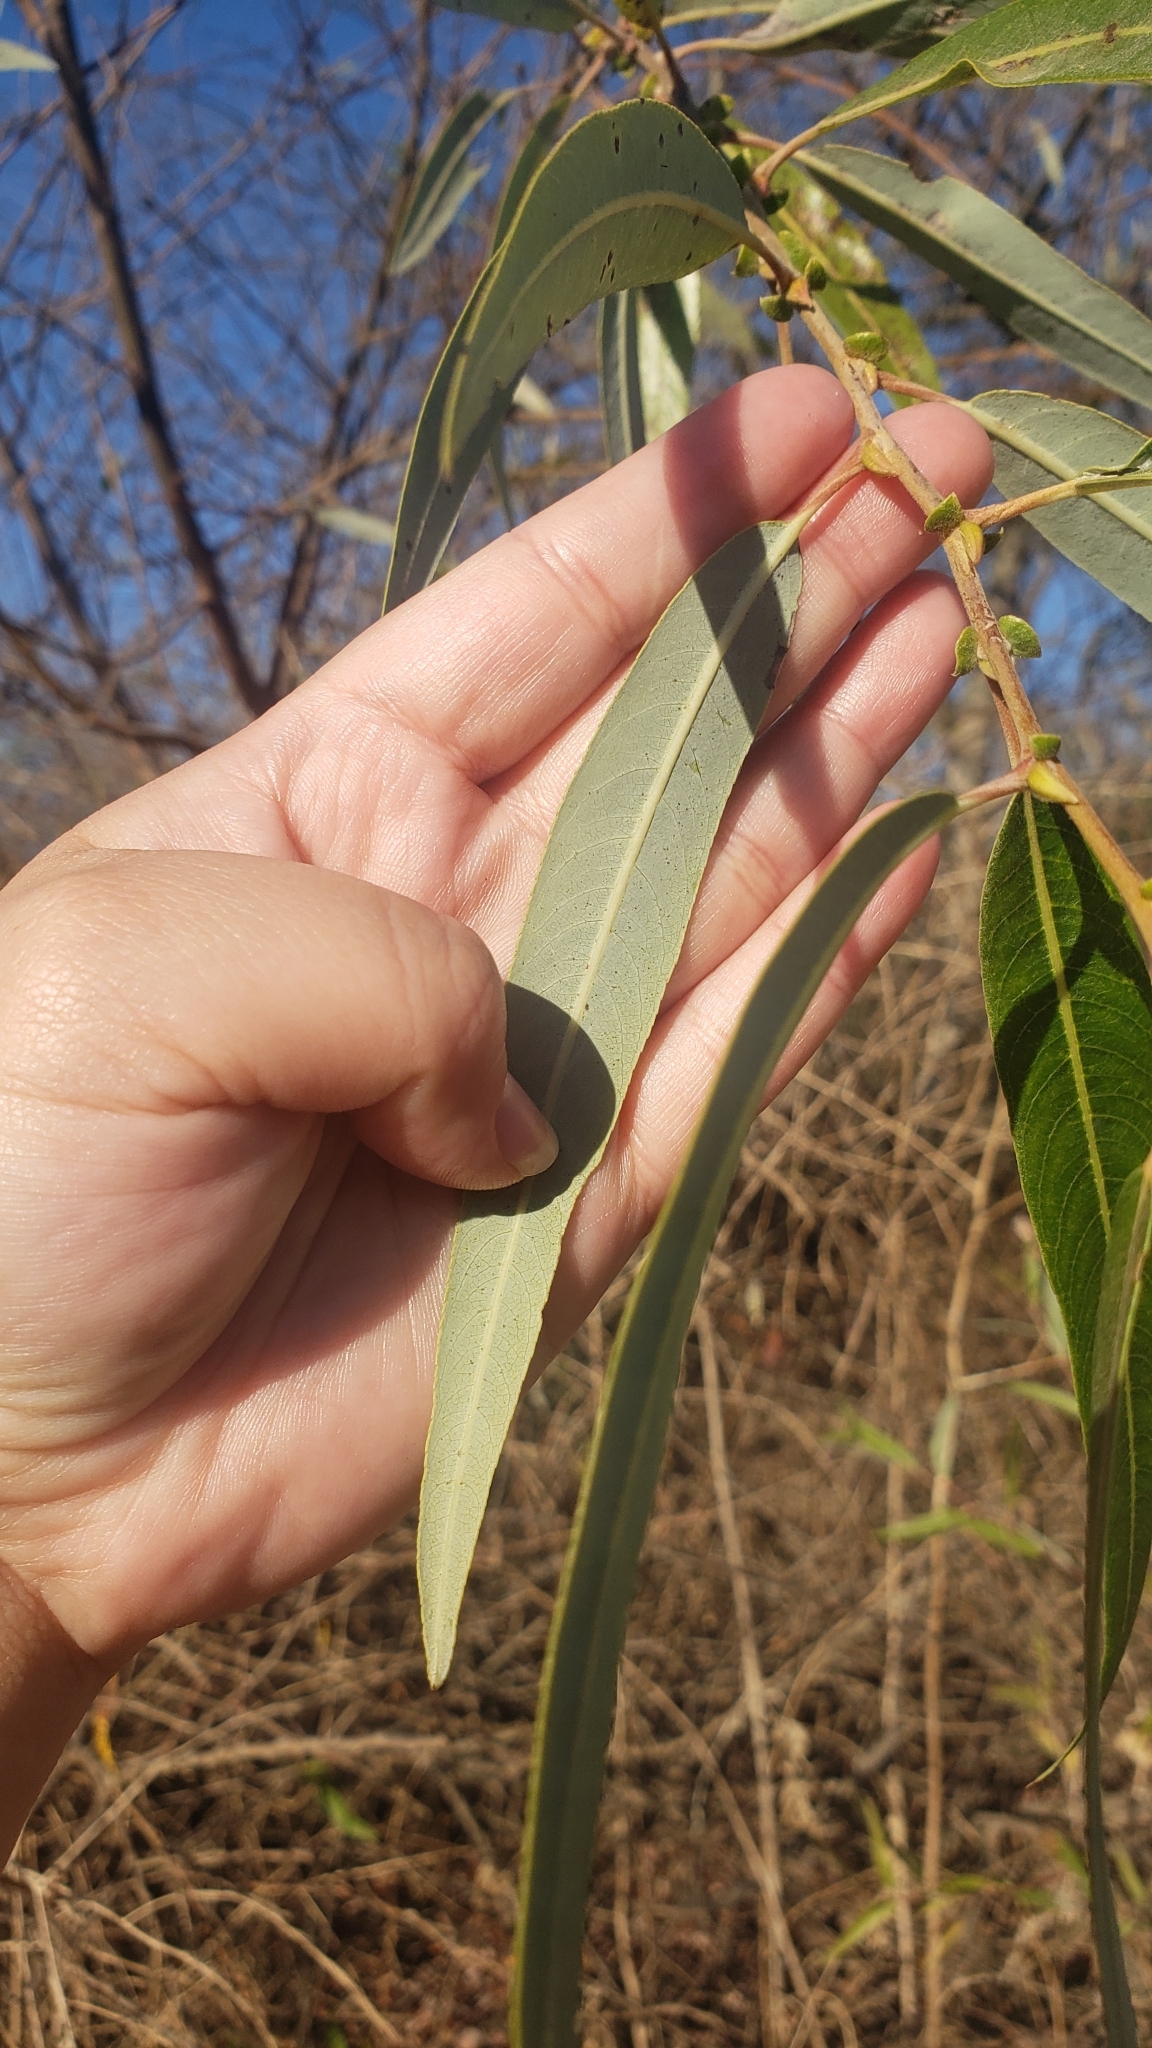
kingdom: Plantae
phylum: Tracheophyta
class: Magnoliopsida
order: Malpighiales
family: Salicaceae
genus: Salix
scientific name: Salix laevigata
